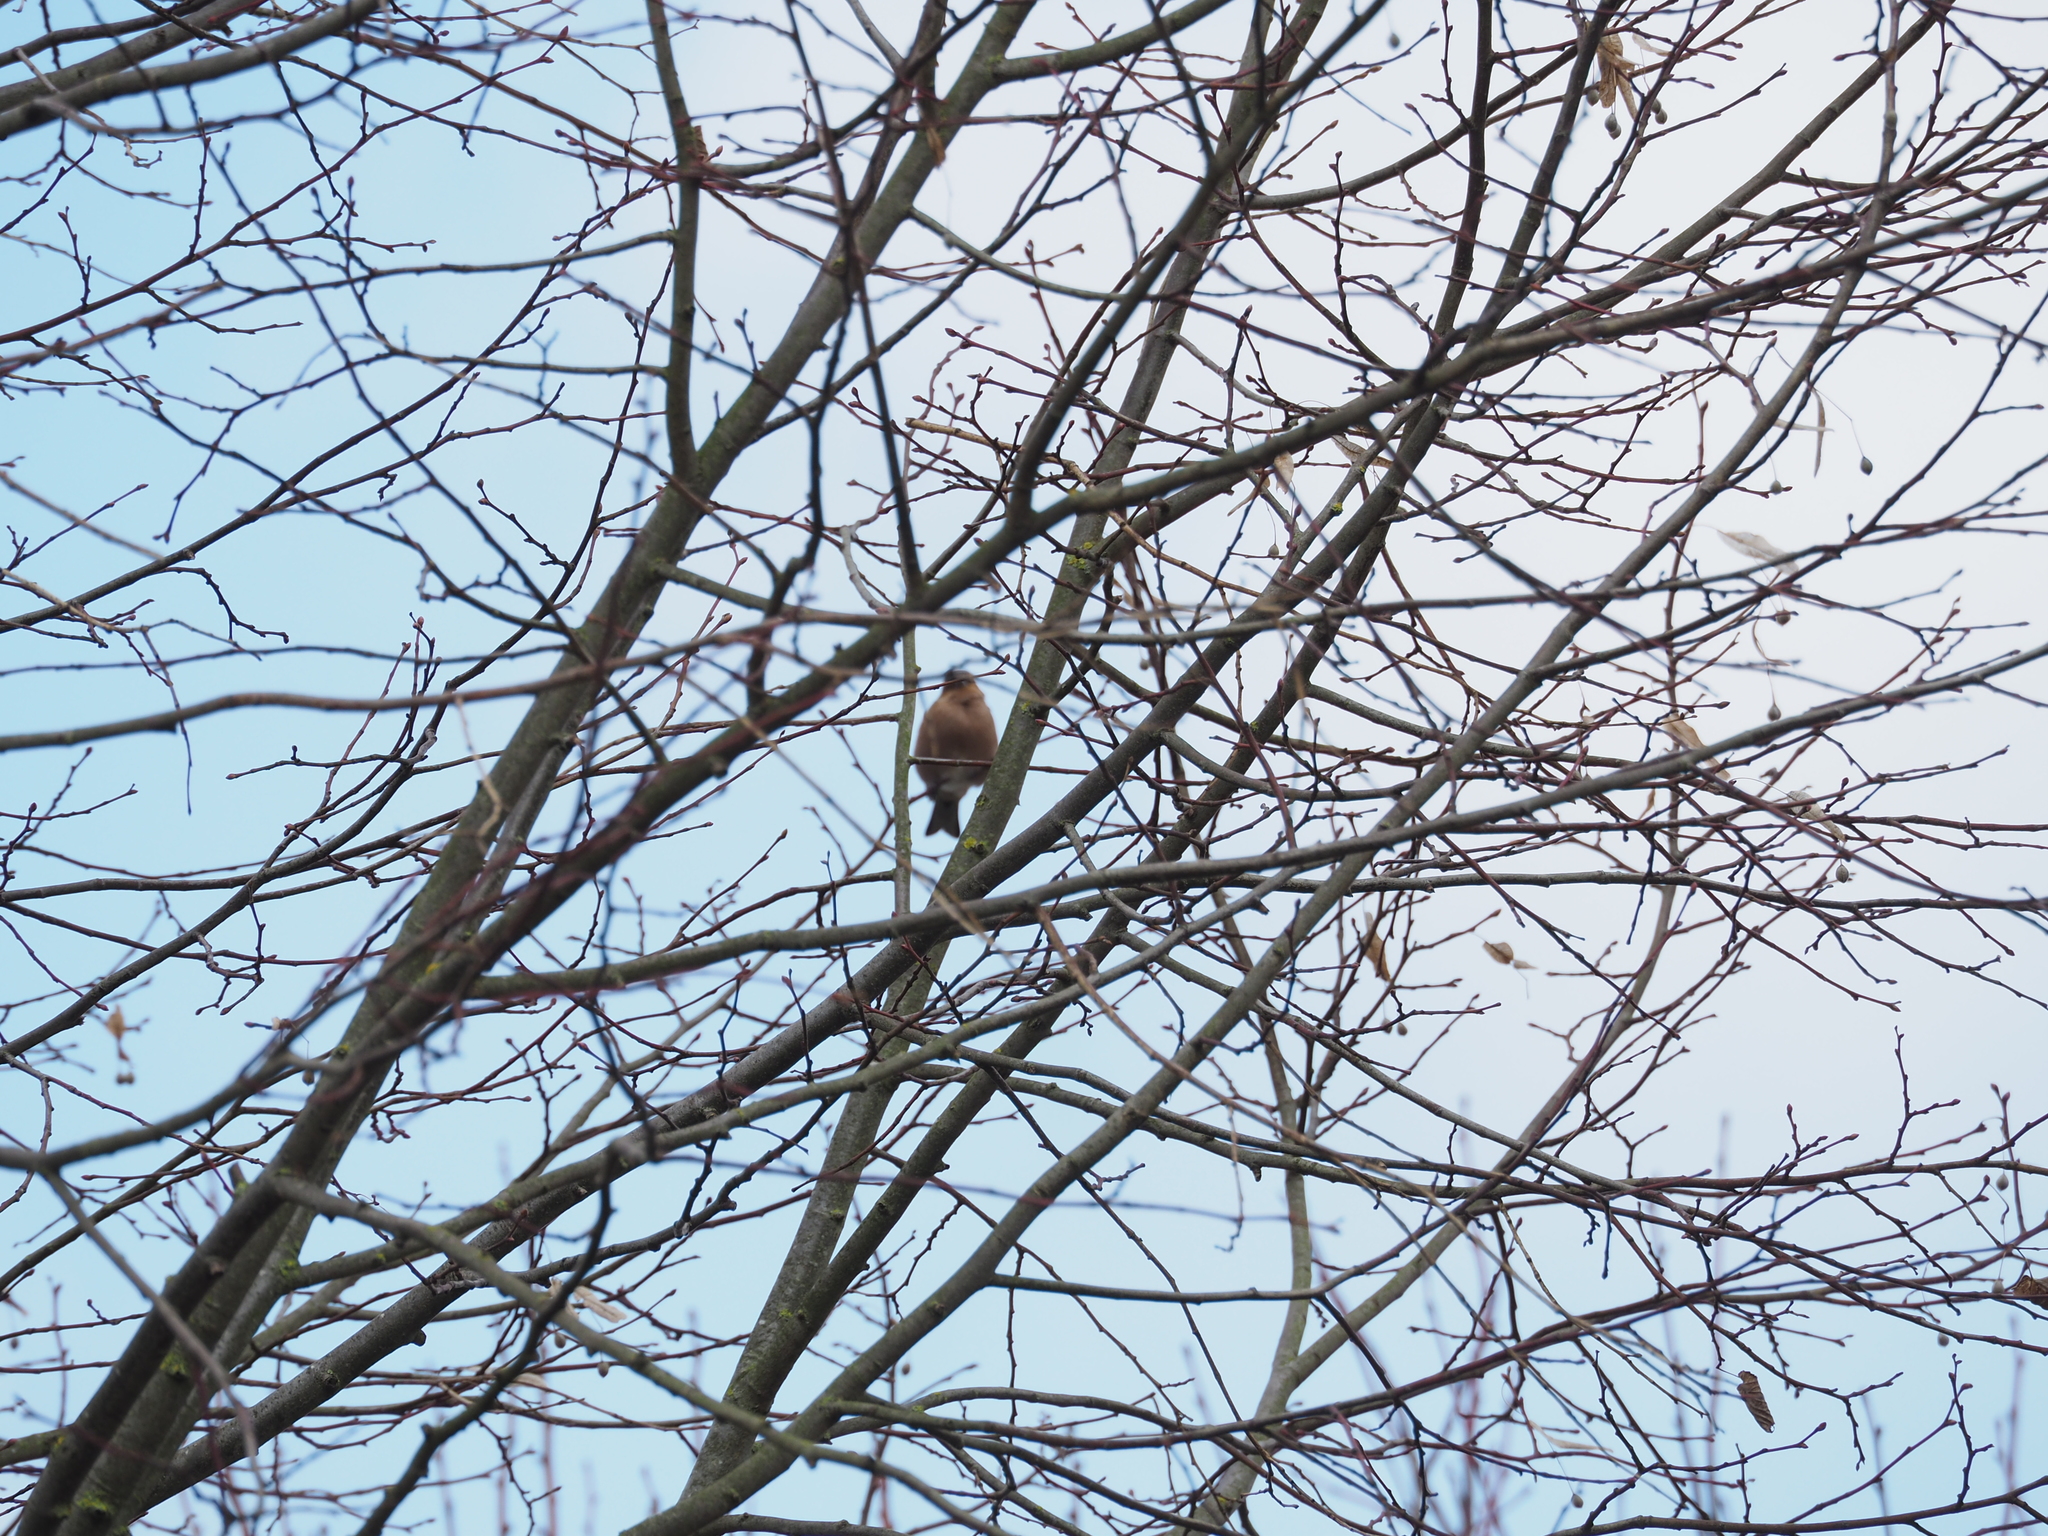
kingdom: Animalia
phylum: Chordata
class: Aves
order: Passeriformes
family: Fringillidae
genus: Fringilla
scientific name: Fringilla coelebs
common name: Common chaffinch
